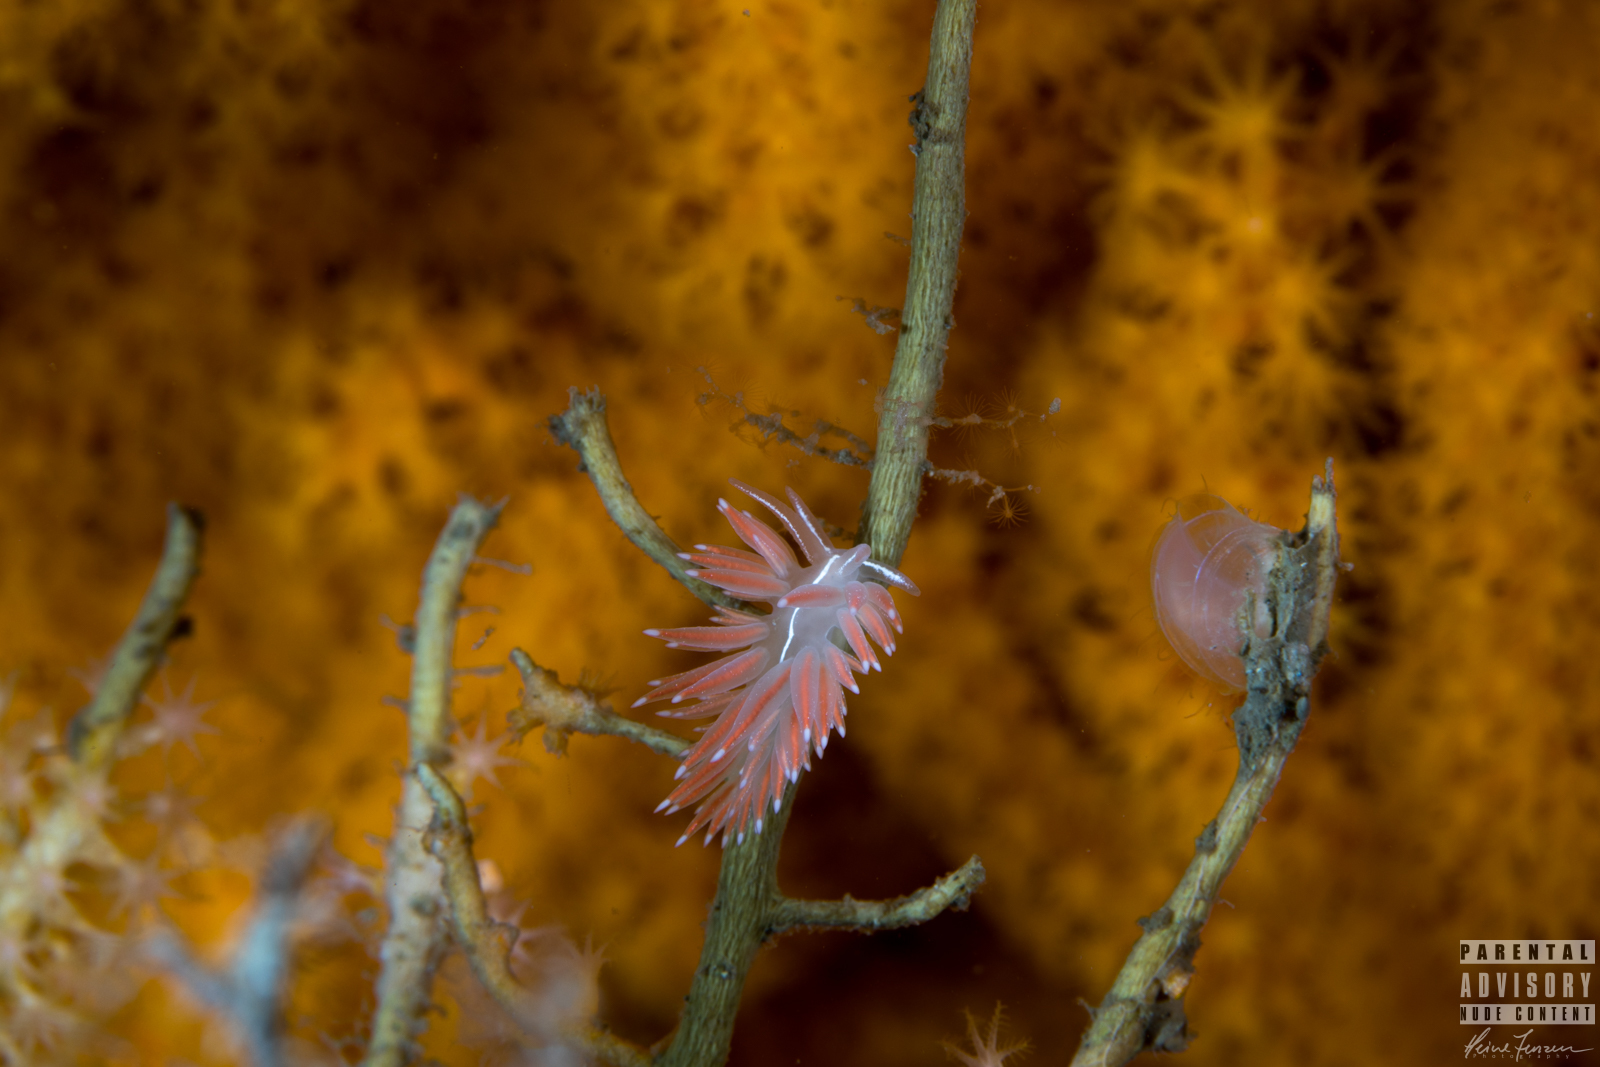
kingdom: Animalia
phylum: Mollusca
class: Gastropoda
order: Nudibranchia
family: Coryphellidae
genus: Coryphella
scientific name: Coryphella chriskaugei
